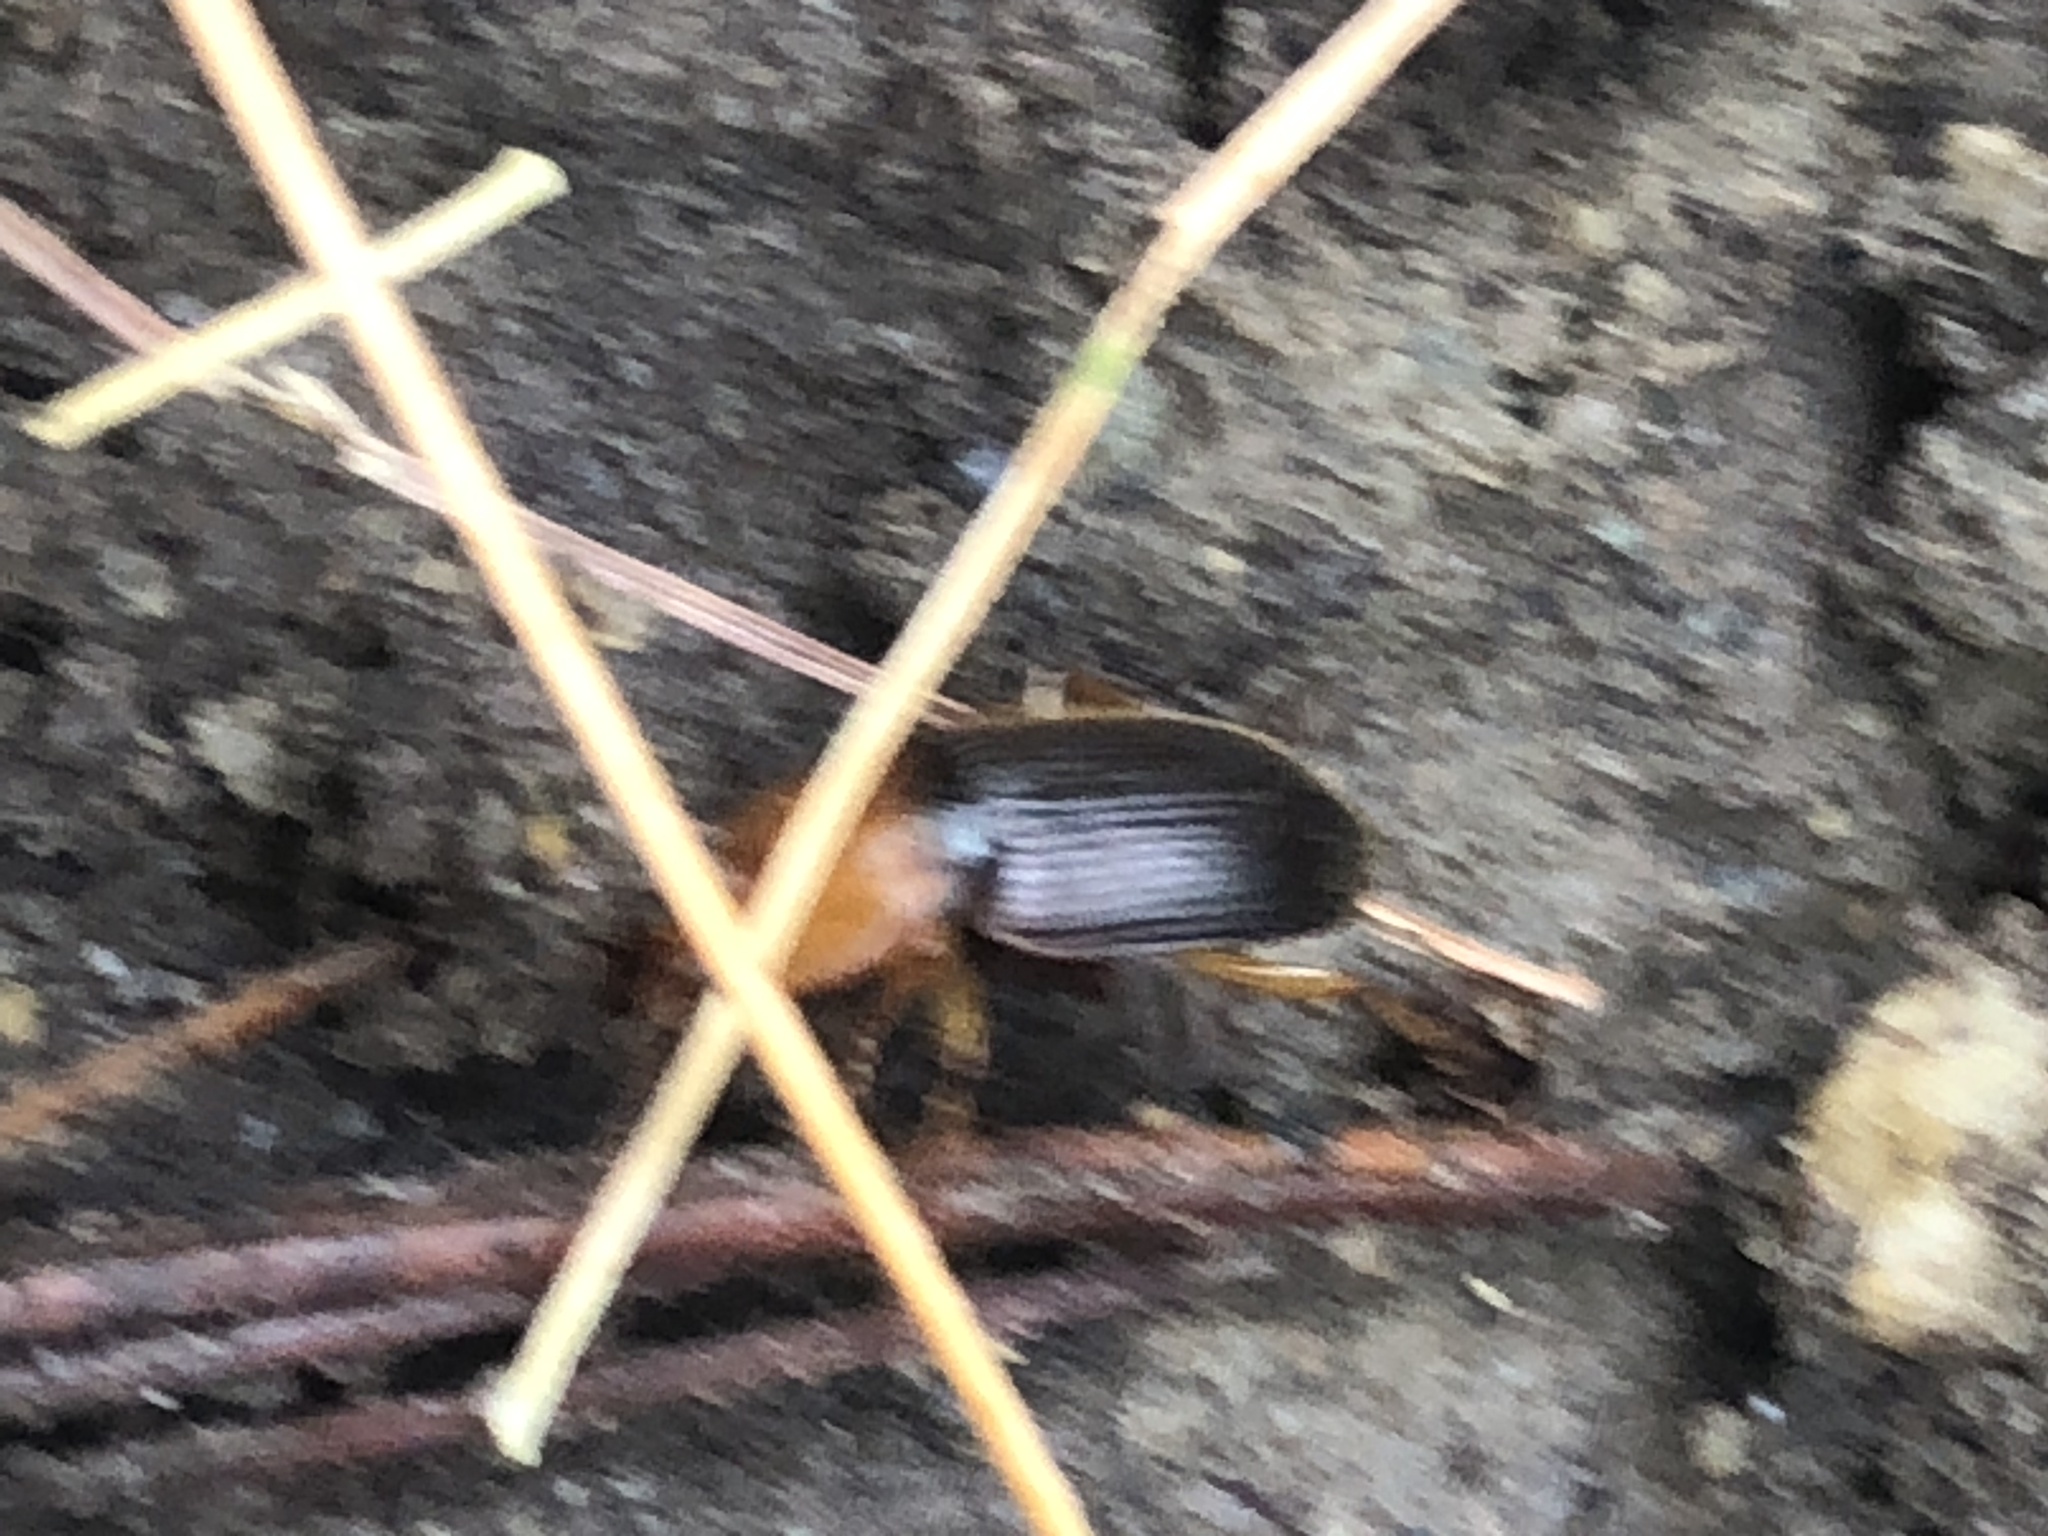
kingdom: Animalia
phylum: Arthropoda
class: Insecta
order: Coleoptera
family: Carabidae
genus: Amphasia
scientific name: Amphasia interstitialis
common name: Red-headed ground beetle
